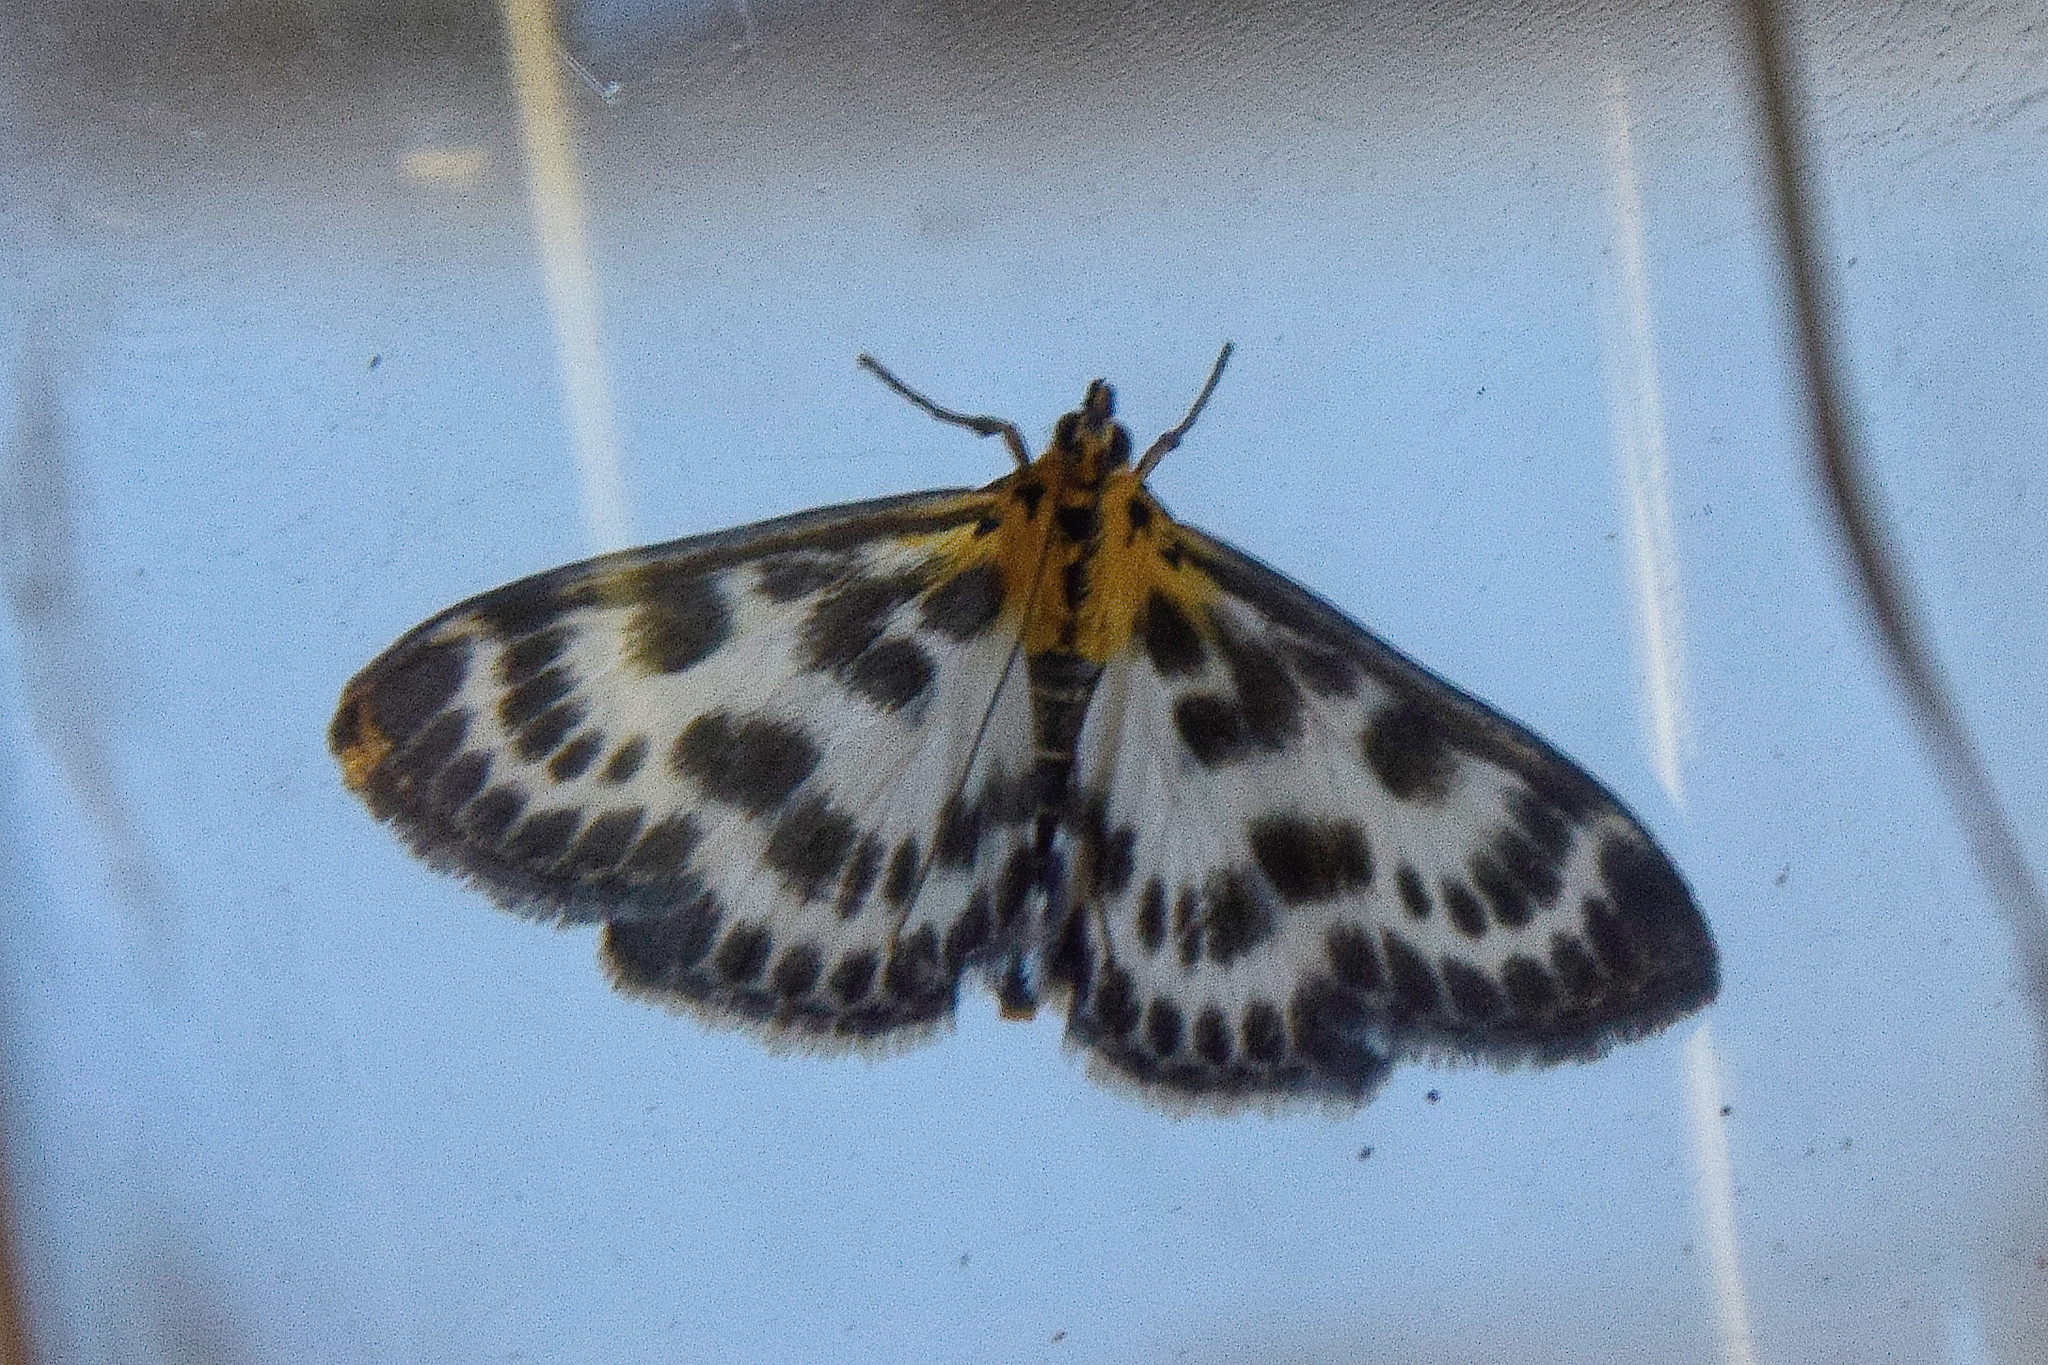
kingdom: Animalia
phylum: Arthropoda
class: Insecta
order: Lepidoptera
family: Crambidae
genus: Anania
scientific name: Anania hortulata
